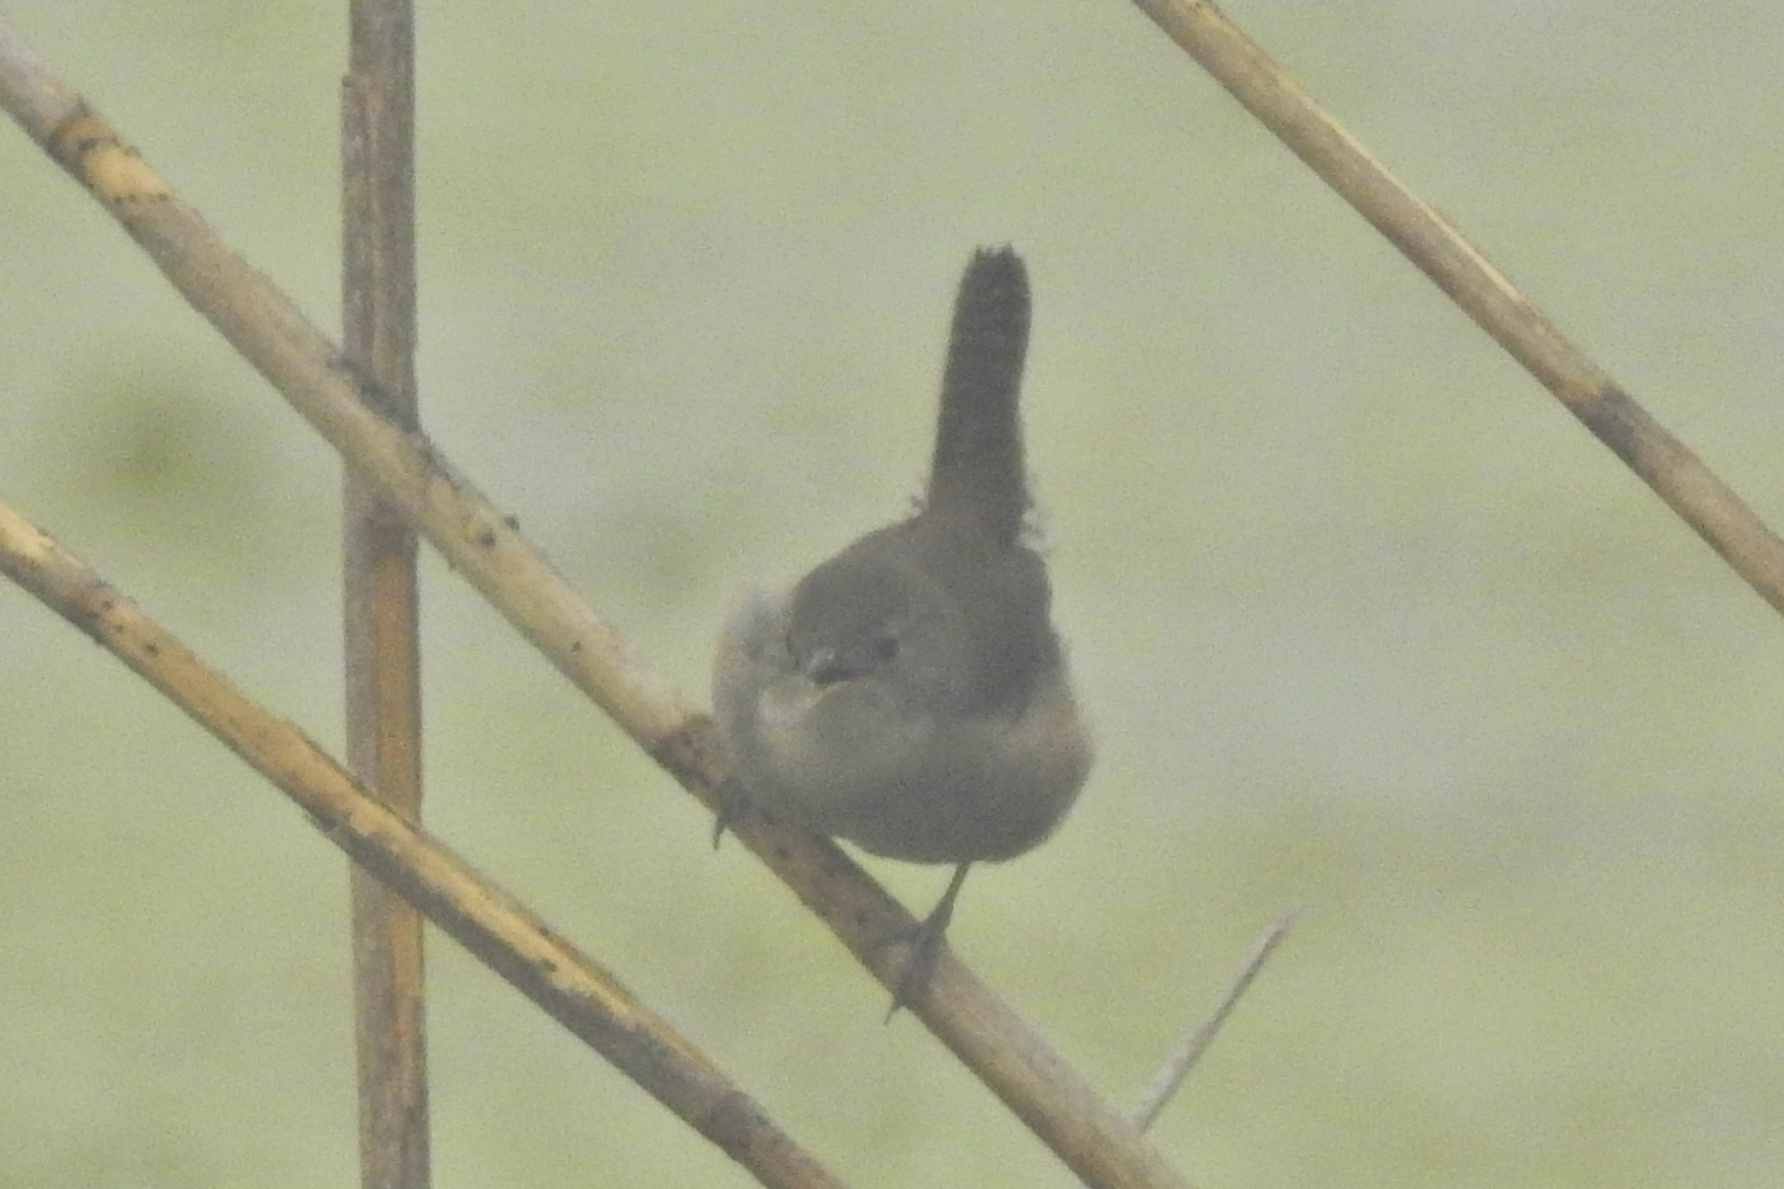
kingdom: Animalia
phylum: Chordata
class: Aves
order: Passeriformes
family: Troglodytidae
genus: Troglodytes
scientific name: Troglodytes aedon
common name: House wren
